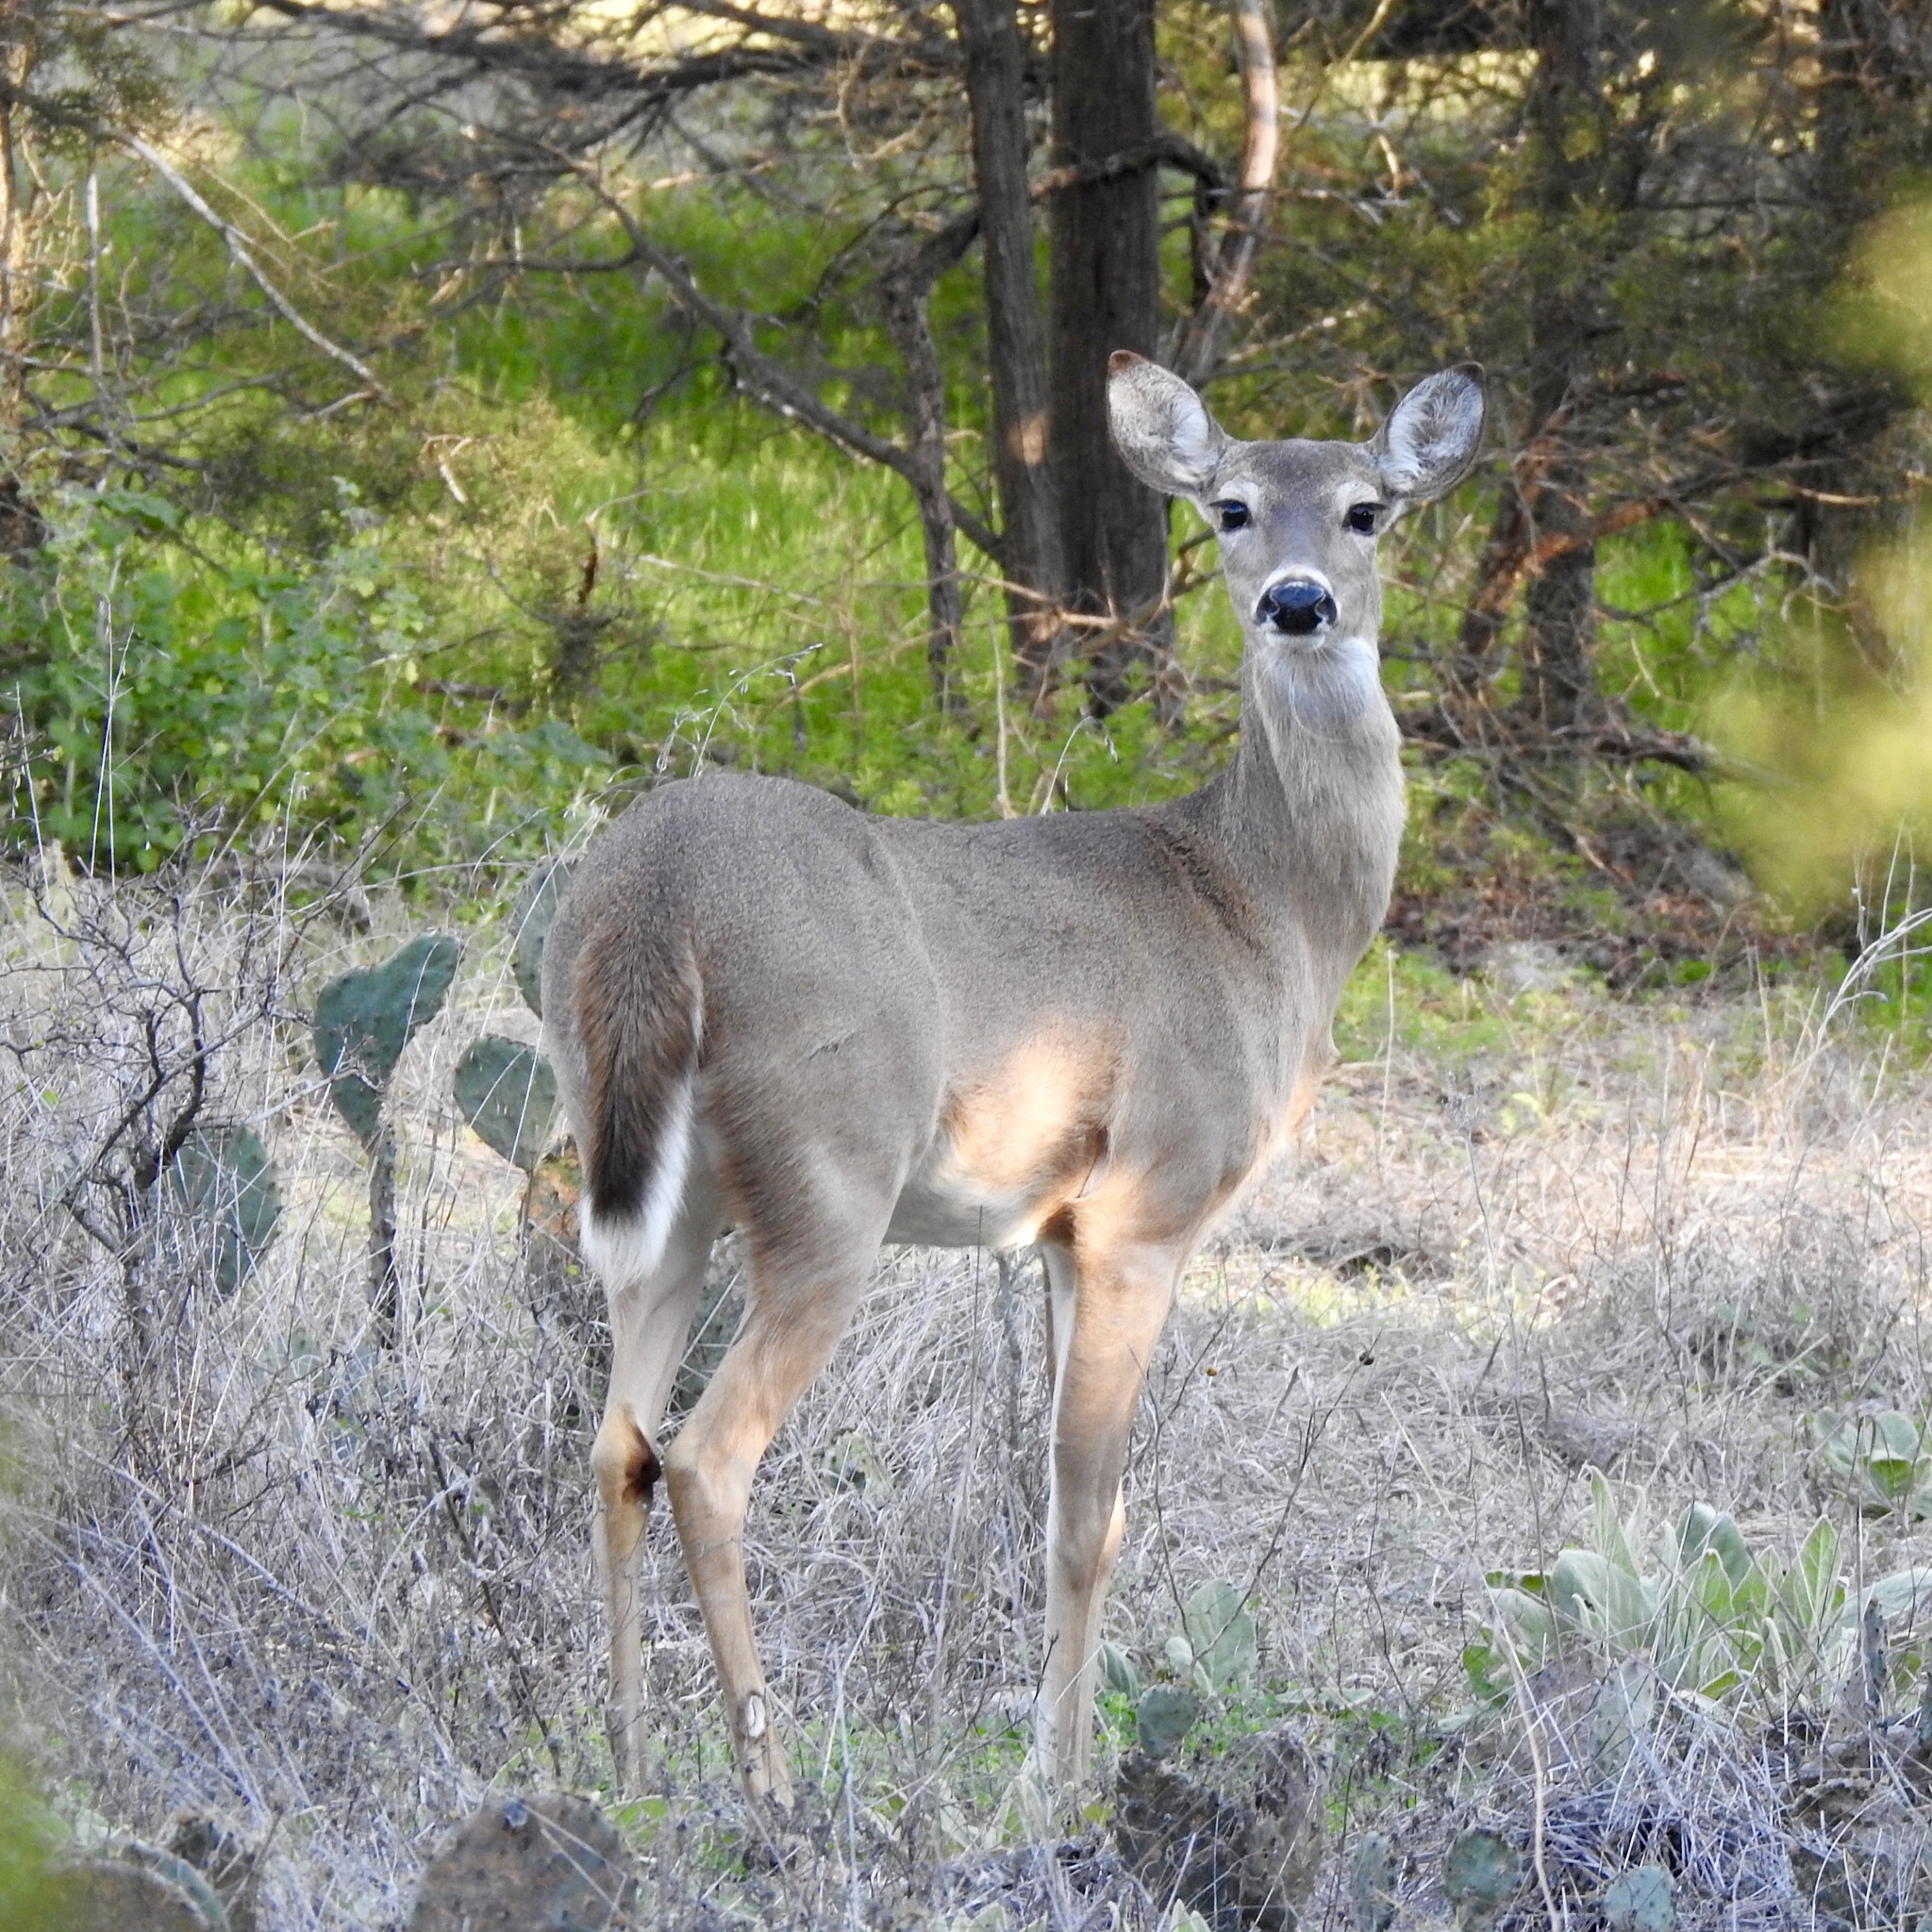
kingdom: Animalia
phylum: Chordata
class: Mammalia
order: Artiodactyla
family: Cervidae
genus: Odocoileus
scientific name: Odocoileus virginianus
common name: White-tailed deer
